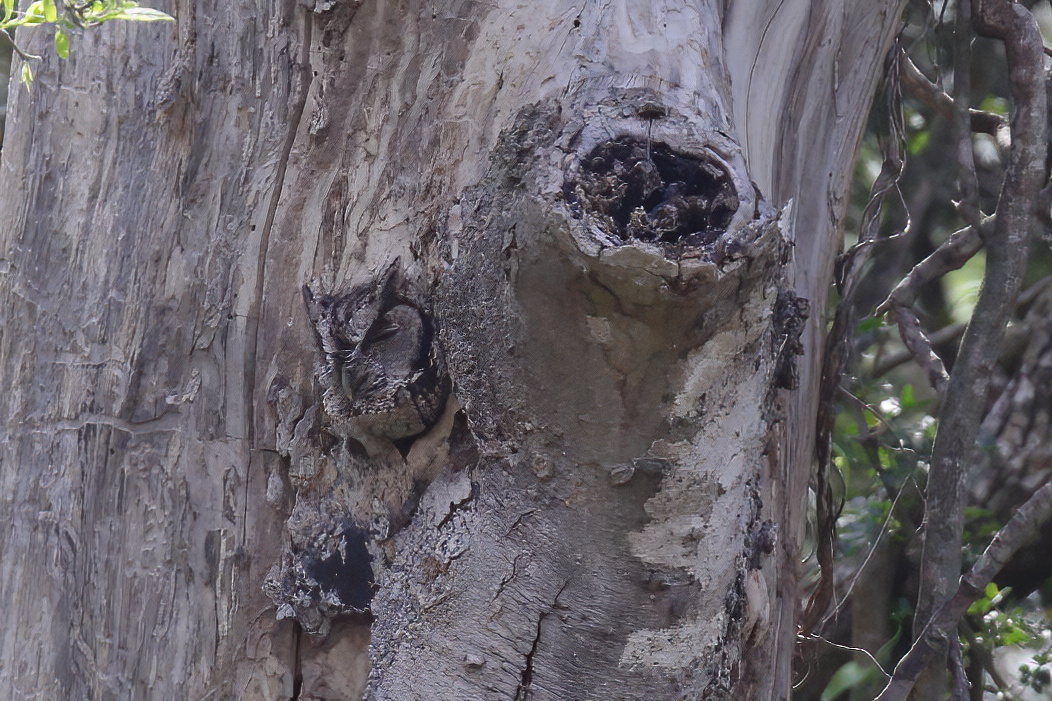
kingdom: Animalia
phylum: Chordata
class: Aves
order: Strigiformes
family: Strigidae
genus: Megascops
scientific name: Megascops asio
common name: Eastern screech-owl
